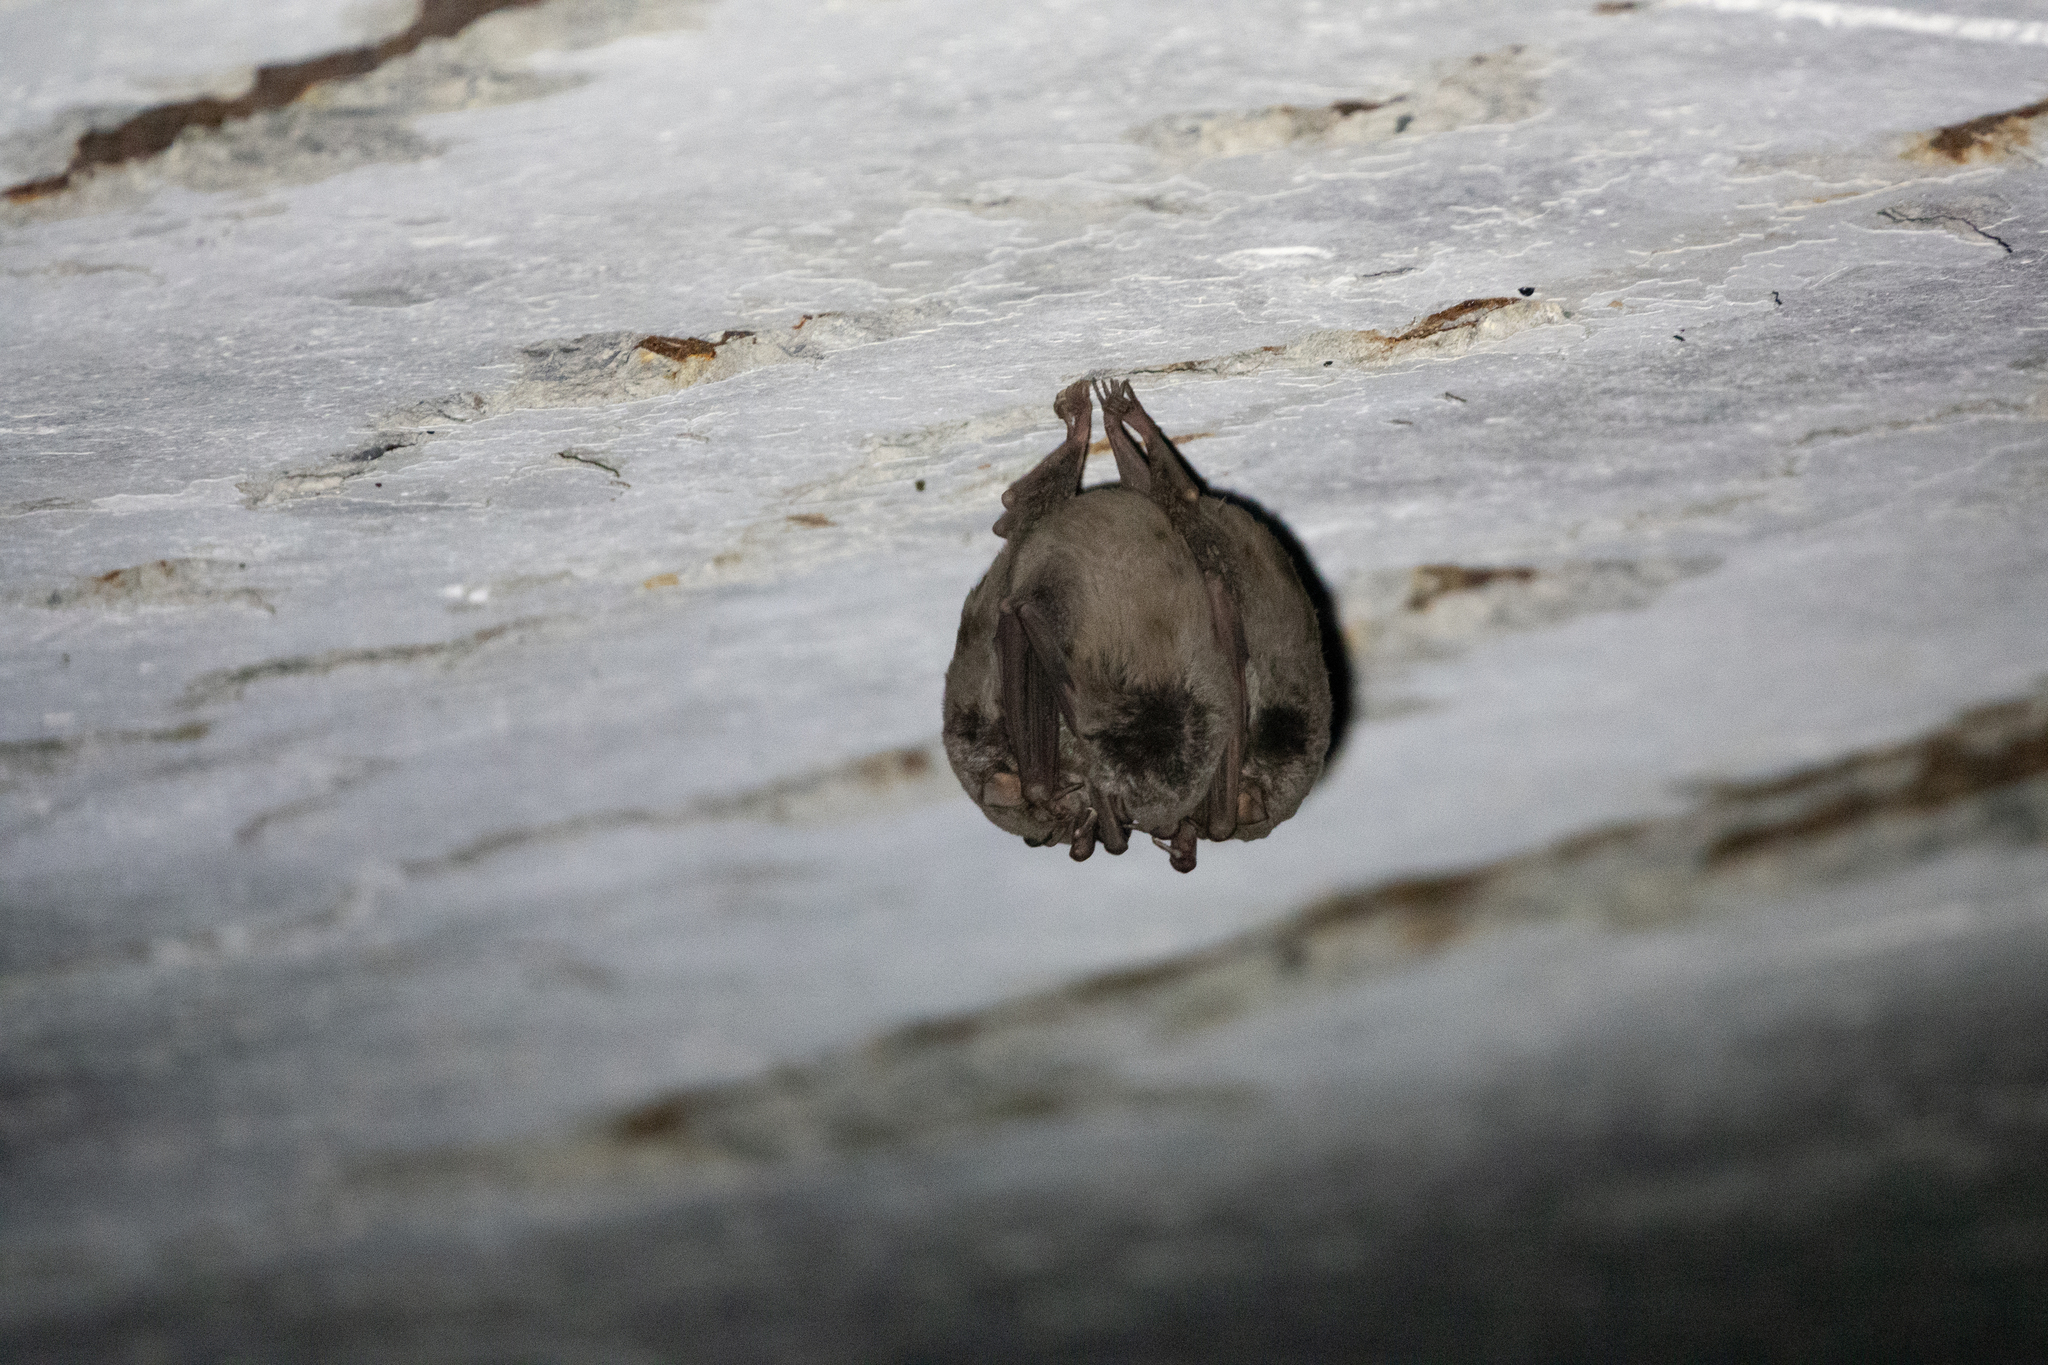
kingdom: Animalia
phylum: Chordata
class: Mammalia
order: Chiroptera
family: Miniopteridae
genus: Miniopterus
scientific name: Miniopterus schreibersii
